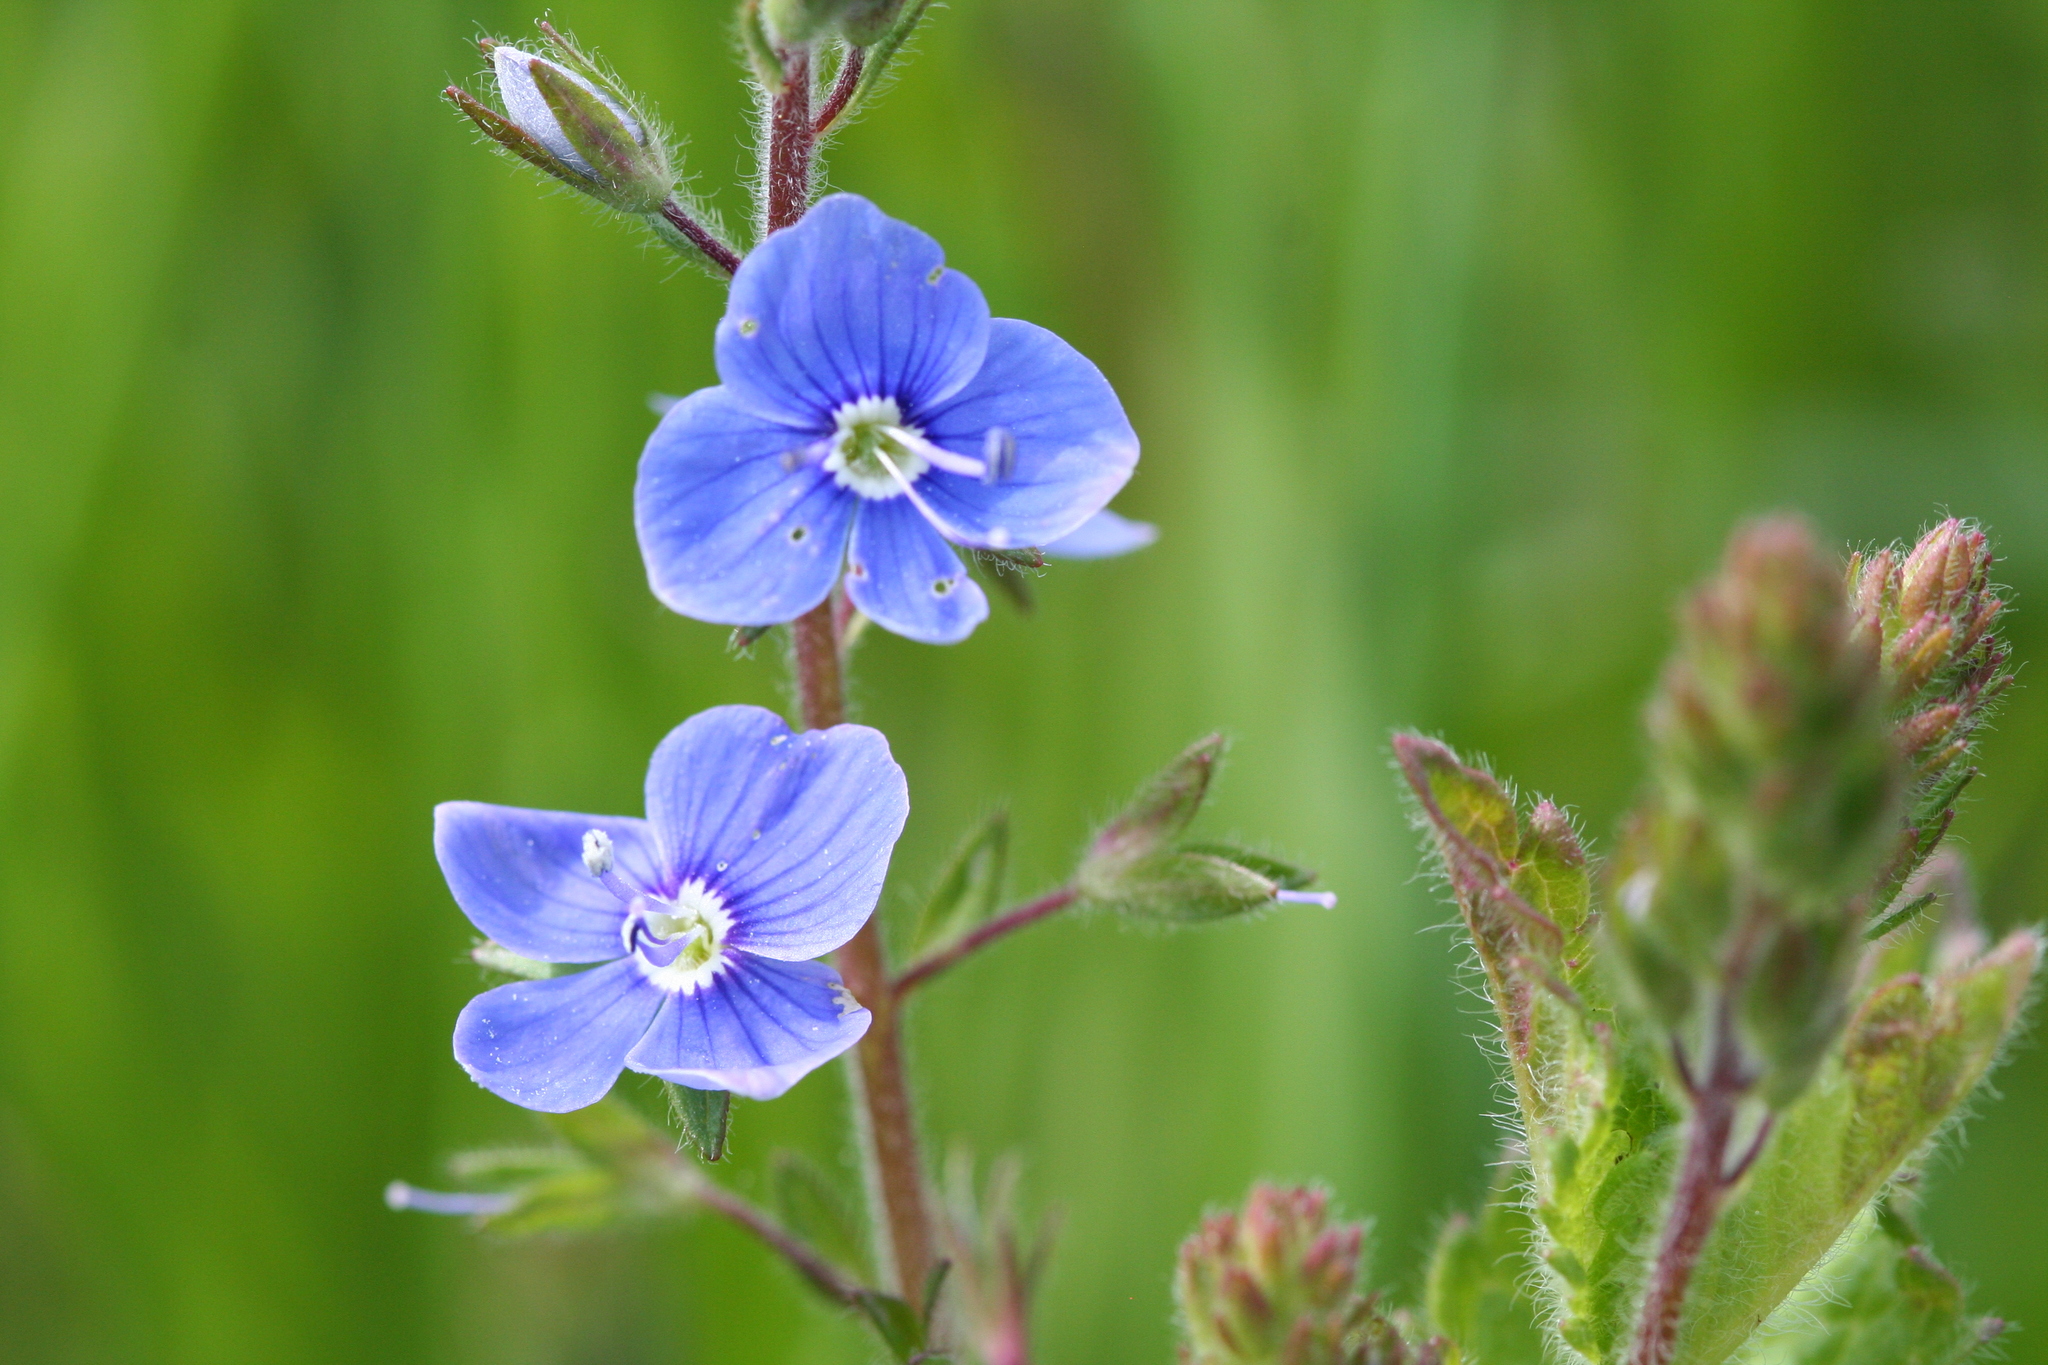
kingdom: Plantae
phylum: Tracheophyta
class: Magnoliopsida
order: Lamiales
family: Plantaginaceae
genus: Veronica
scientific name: Veronica chamaedrys
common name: Germander speedwell
